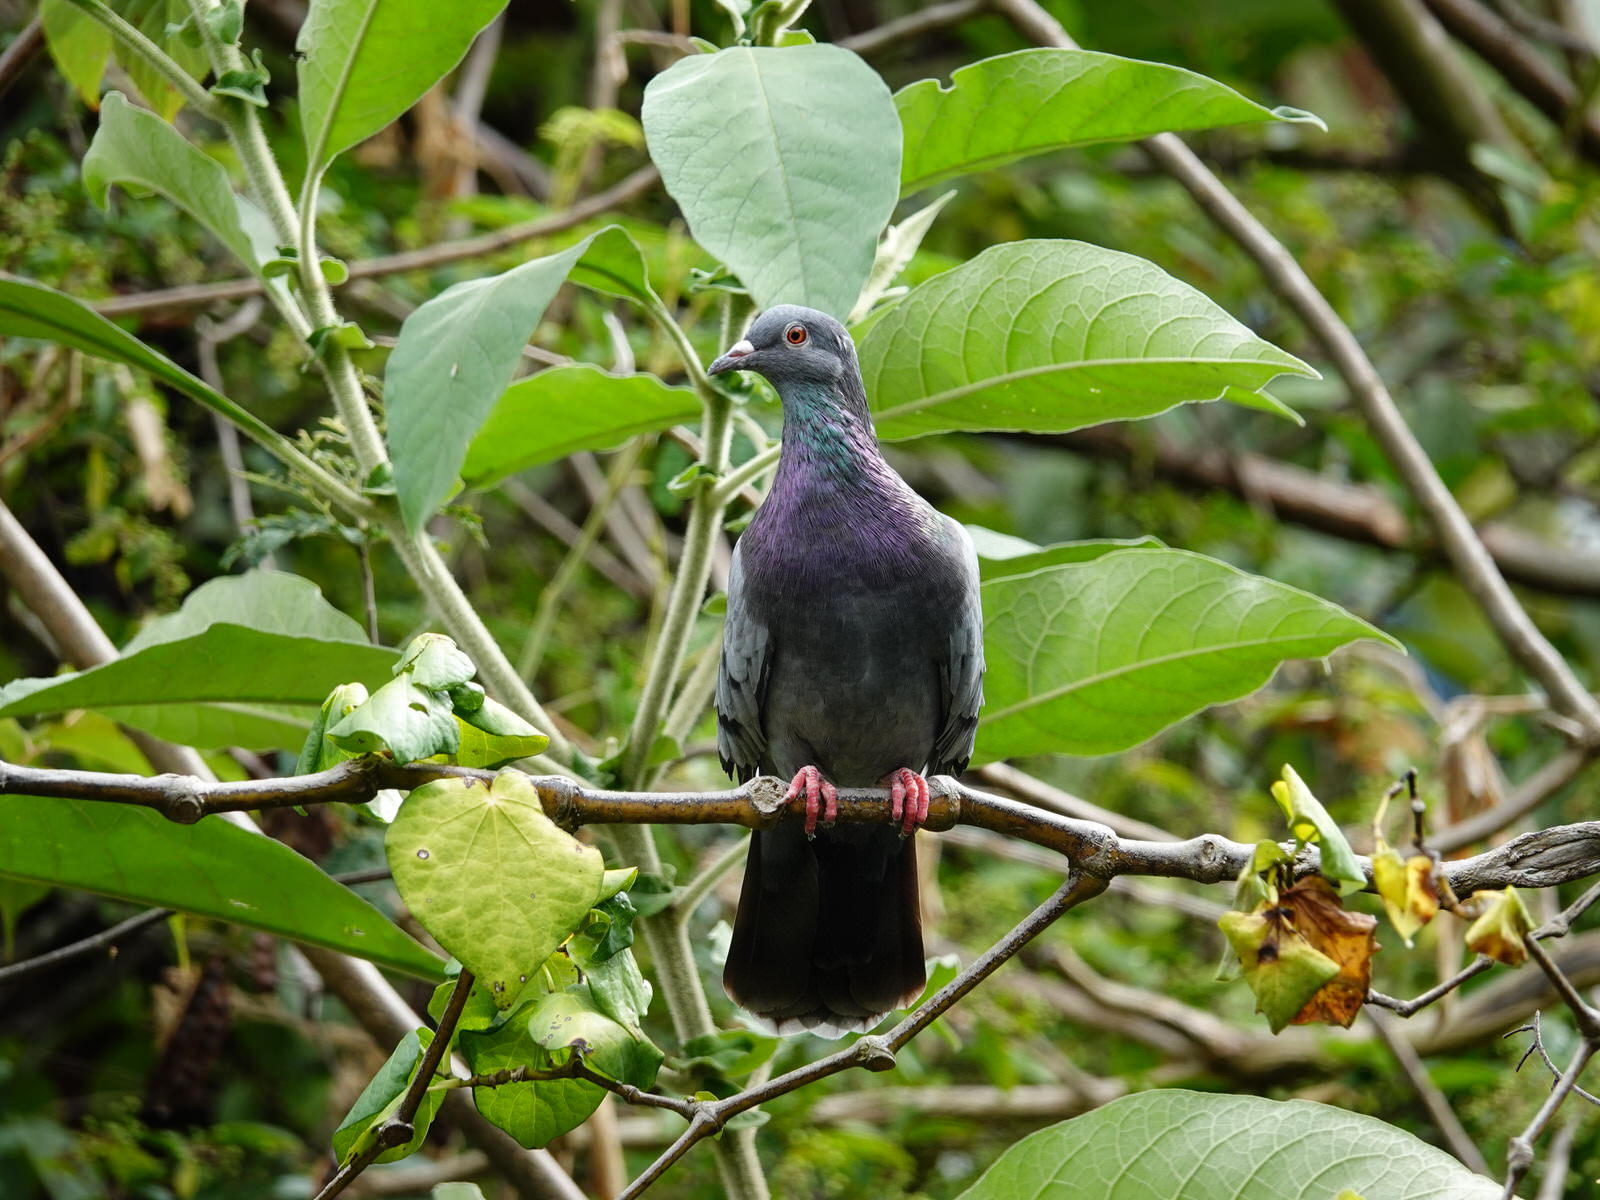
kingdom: Animalia
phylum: Chordata
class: Aves
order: Columbiformes
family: Columbidae
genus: Columba
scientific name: Columba livia
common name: Rock pigeon
